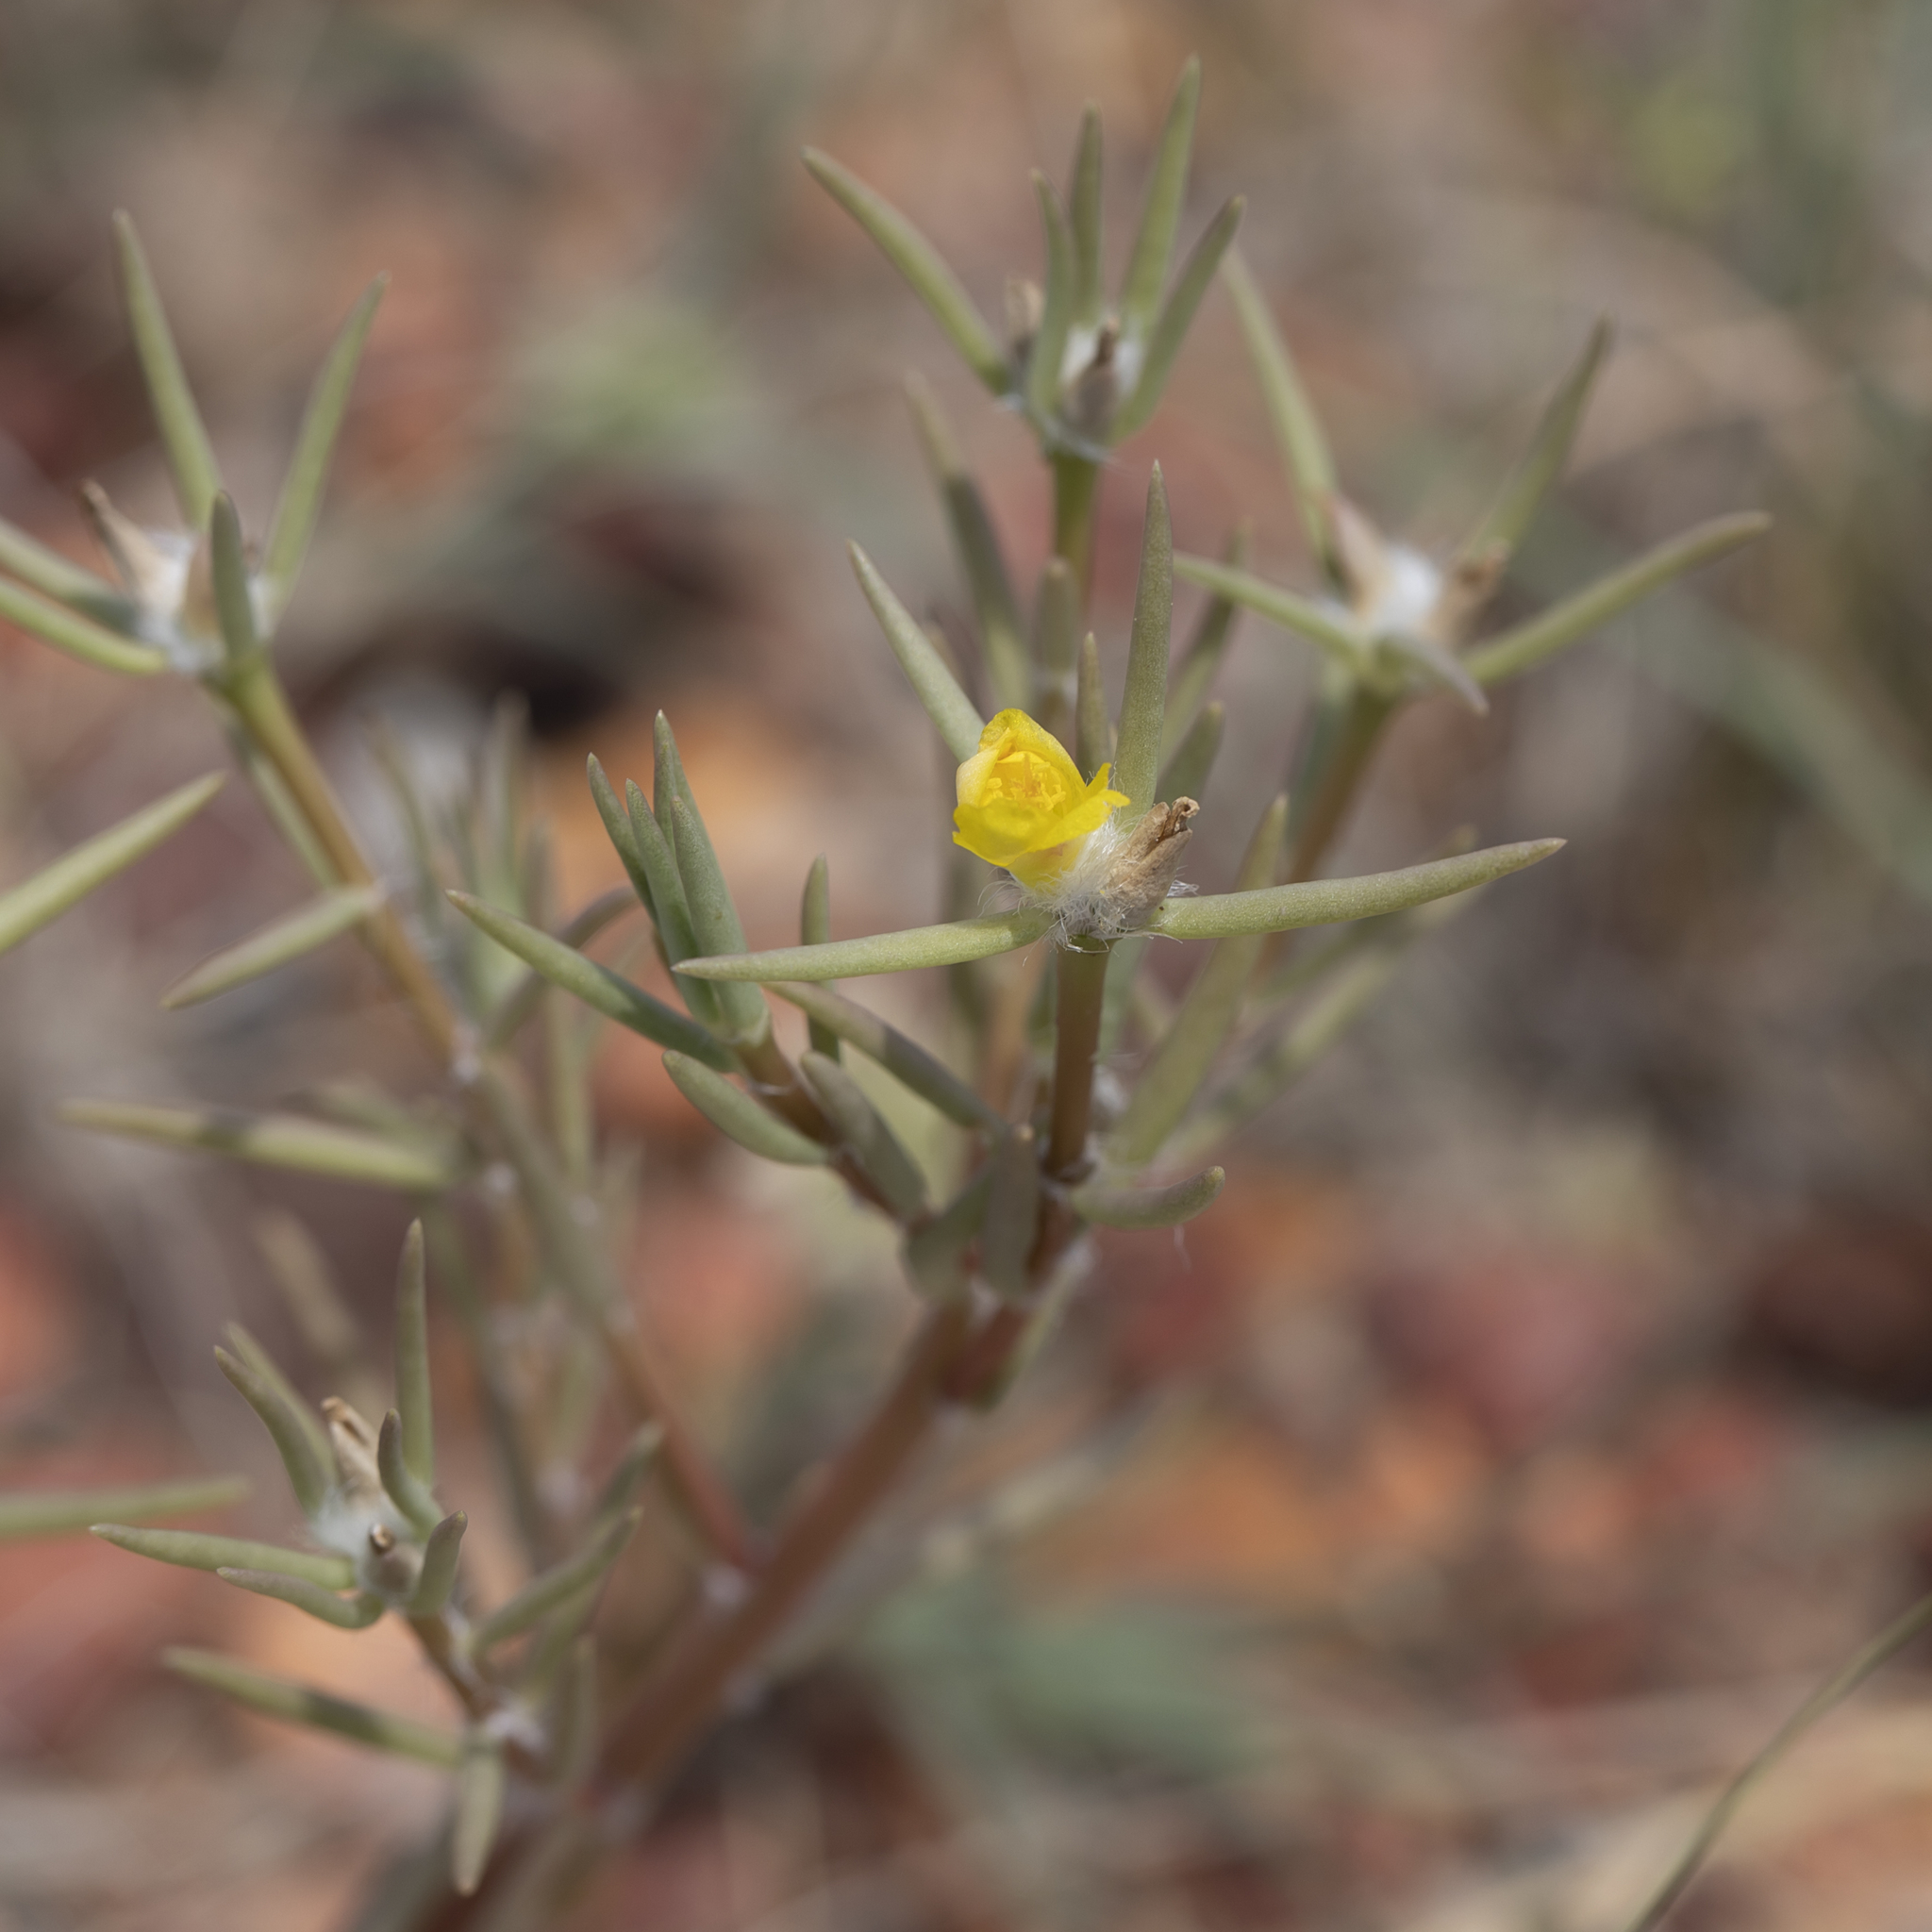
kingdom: Plantae
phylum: Tracheophyta
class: Magnoliopsida
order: Caryophyllales
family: Portulacaceae
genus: Portulaca
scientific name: Portulaca filifolia
